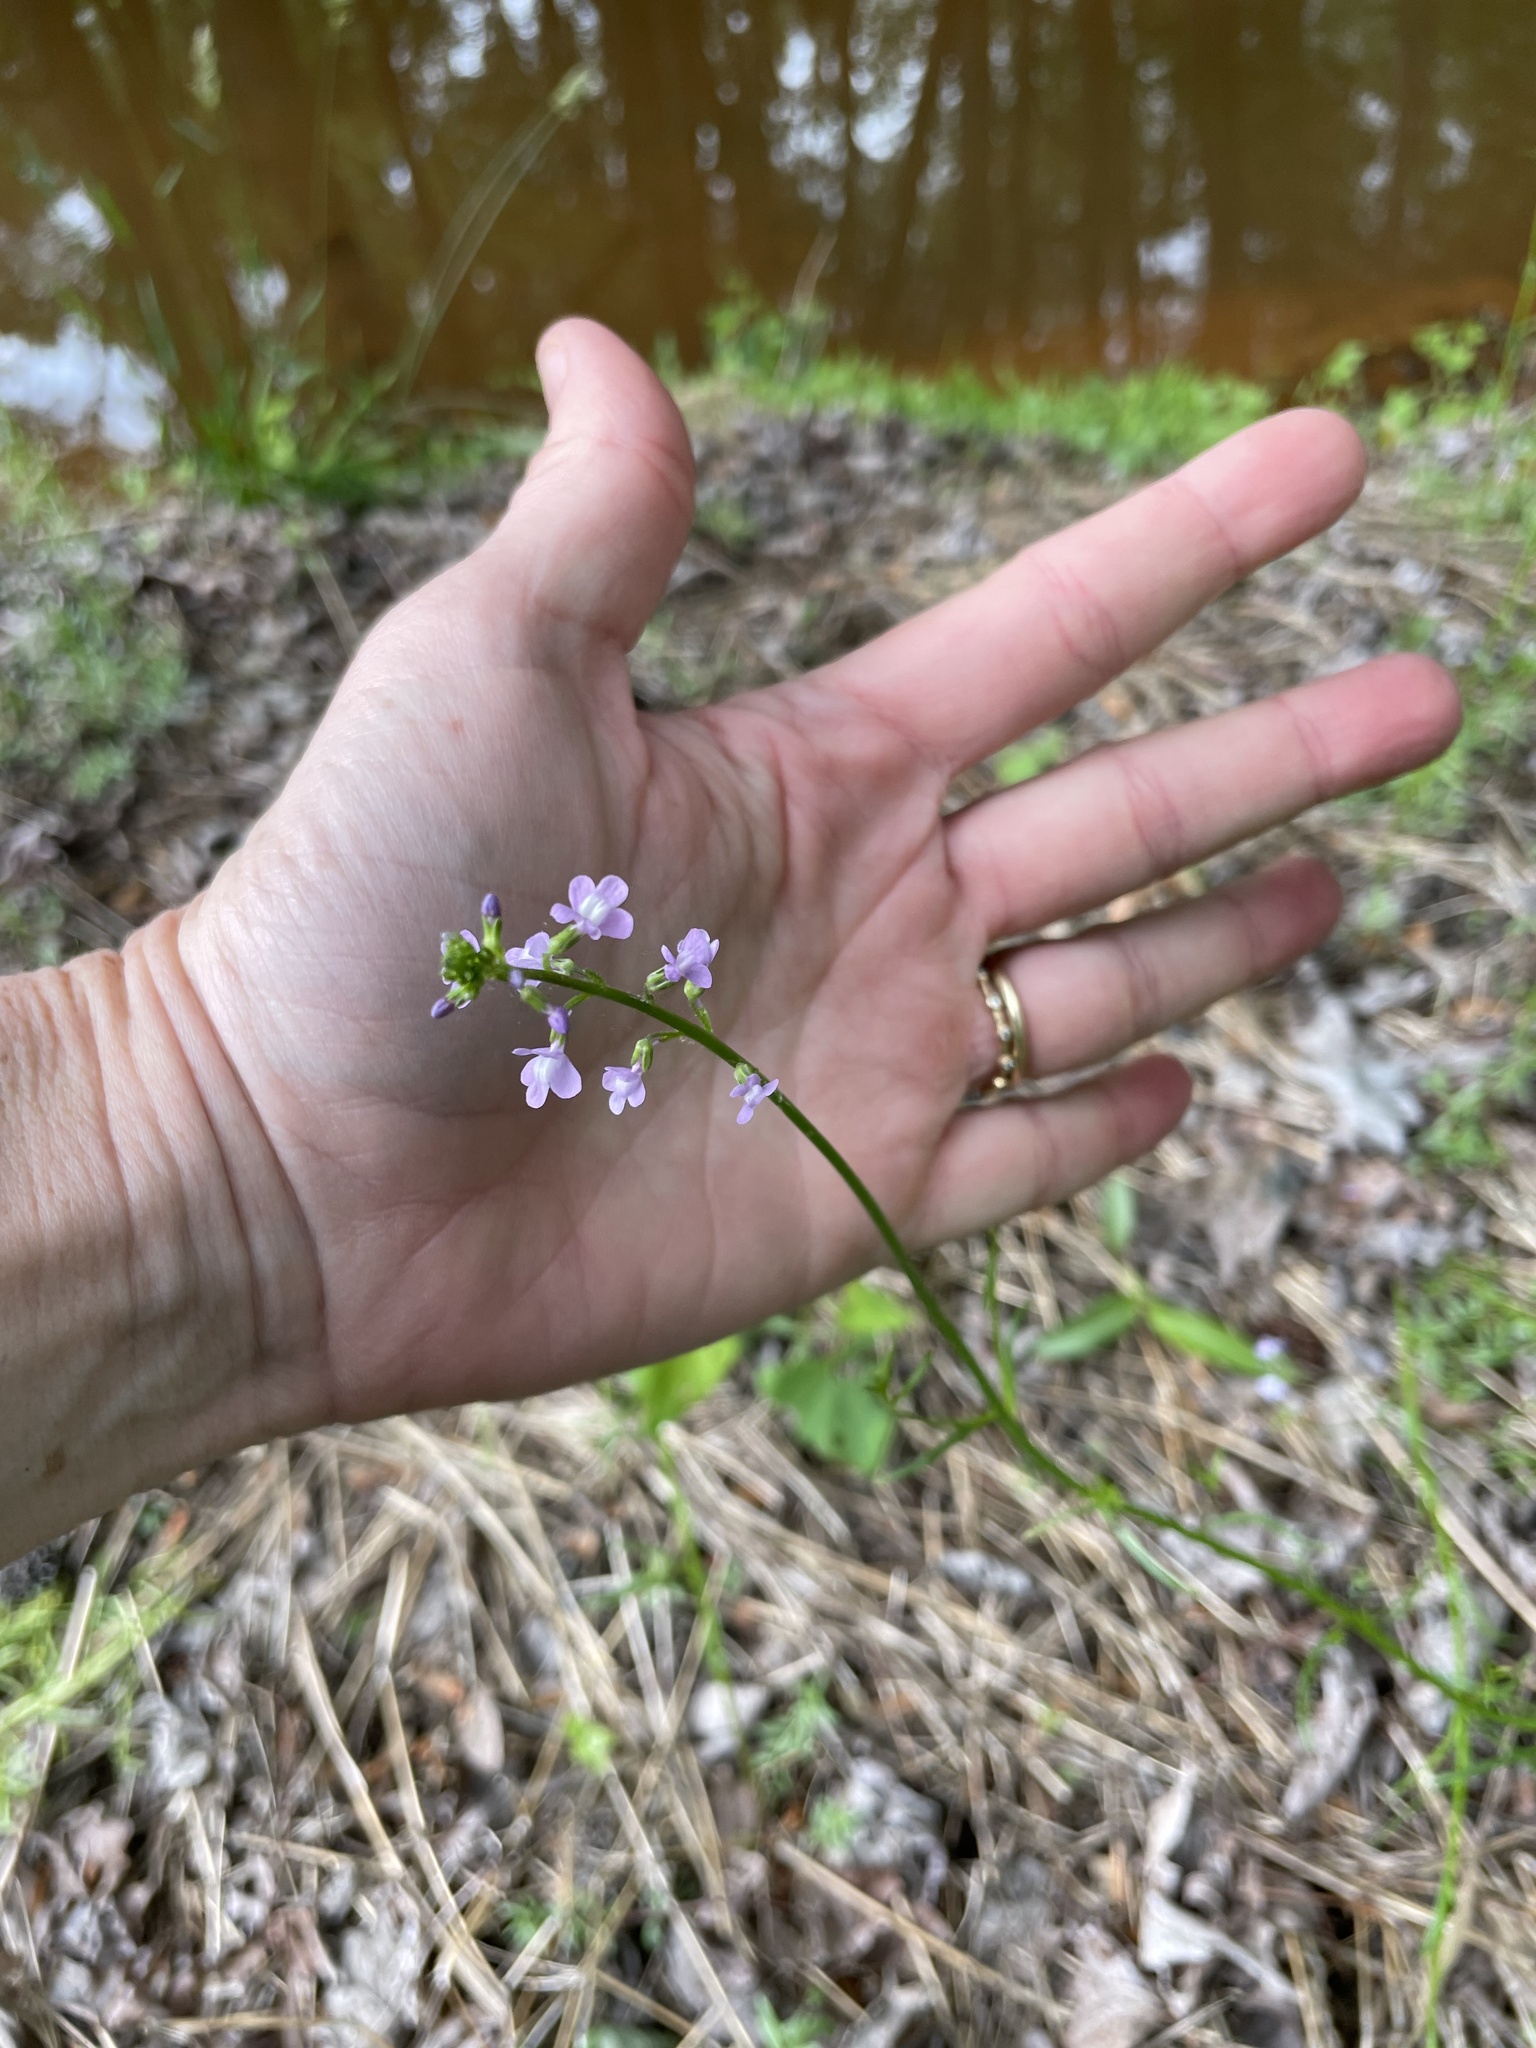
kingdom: Plantae
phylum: Tracheophyta
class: Magnoliopsida
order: Lamiales
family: Plantaginaceae
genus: Nuttallanthus
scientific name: Nuttallanthus canadensis
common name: Blue toadflax
